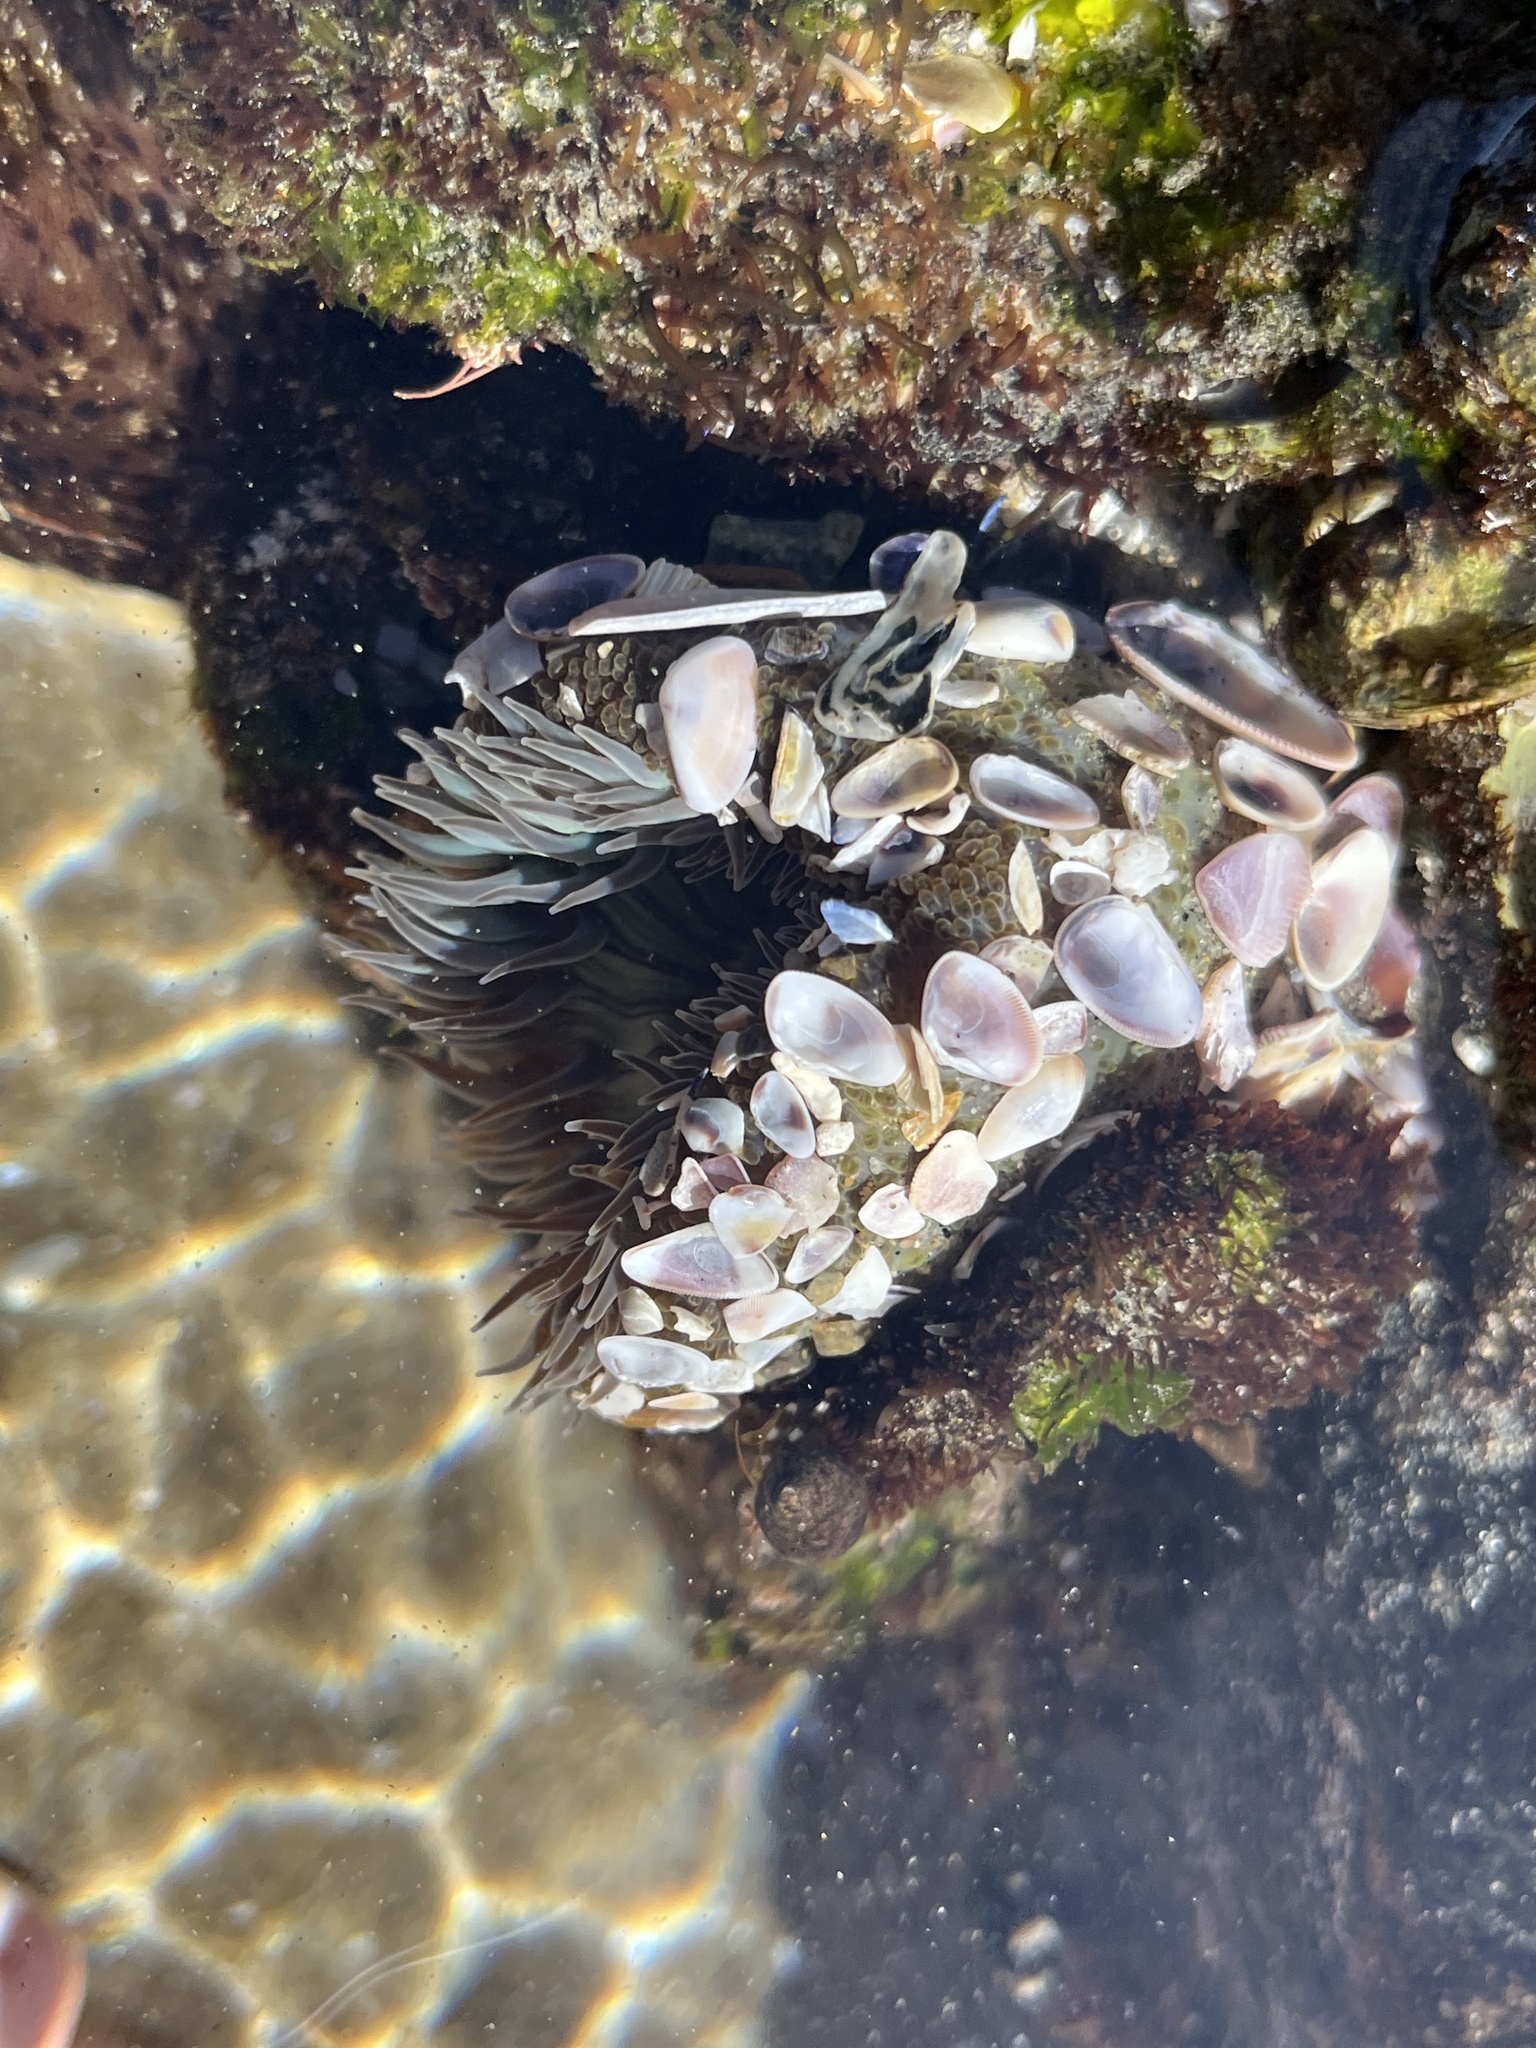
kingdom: Animalia
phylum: Cnidaria
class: Anthozoa
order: Actiniaria
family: Actiniidae
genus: Anthopleura
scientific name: Anthopleura sola
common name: Sun anemone
